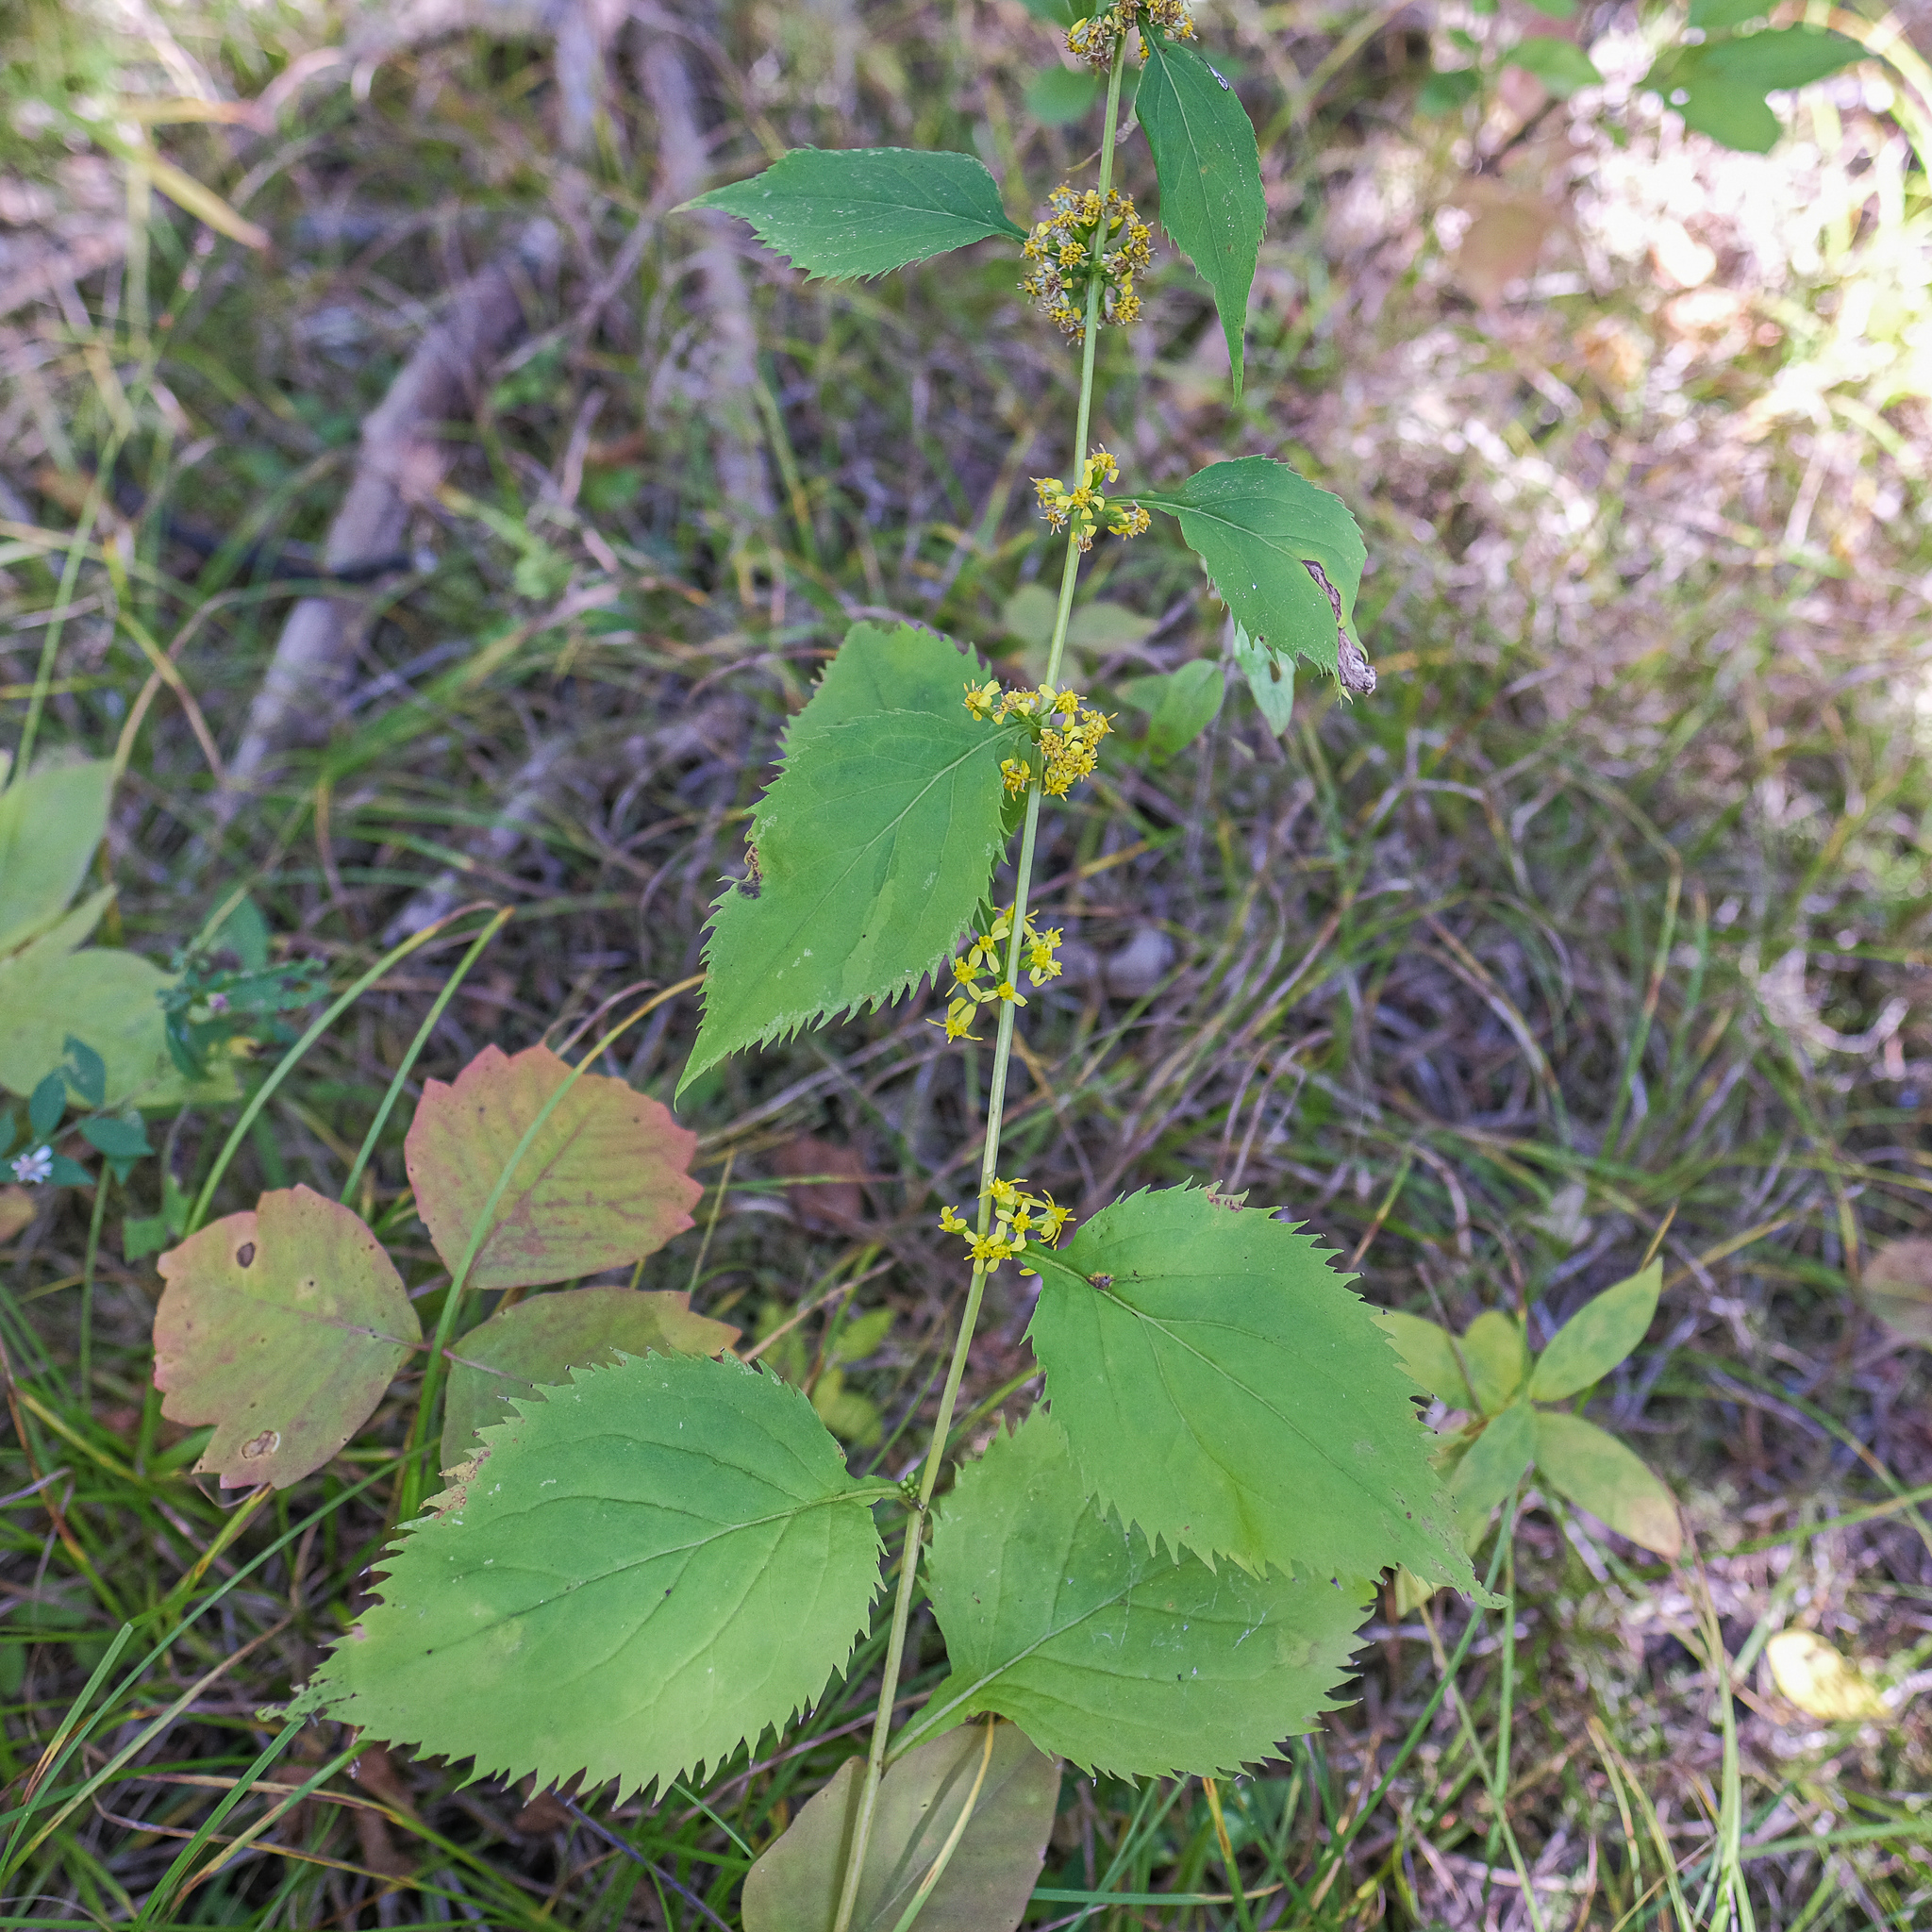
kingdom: Plantae
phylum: Tracheophyta
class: Magnoliopsida
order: Asterales
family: Asteraceae
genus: Solidago
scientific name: Solidago flexicaulis
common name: Zig-zag goldenrod
